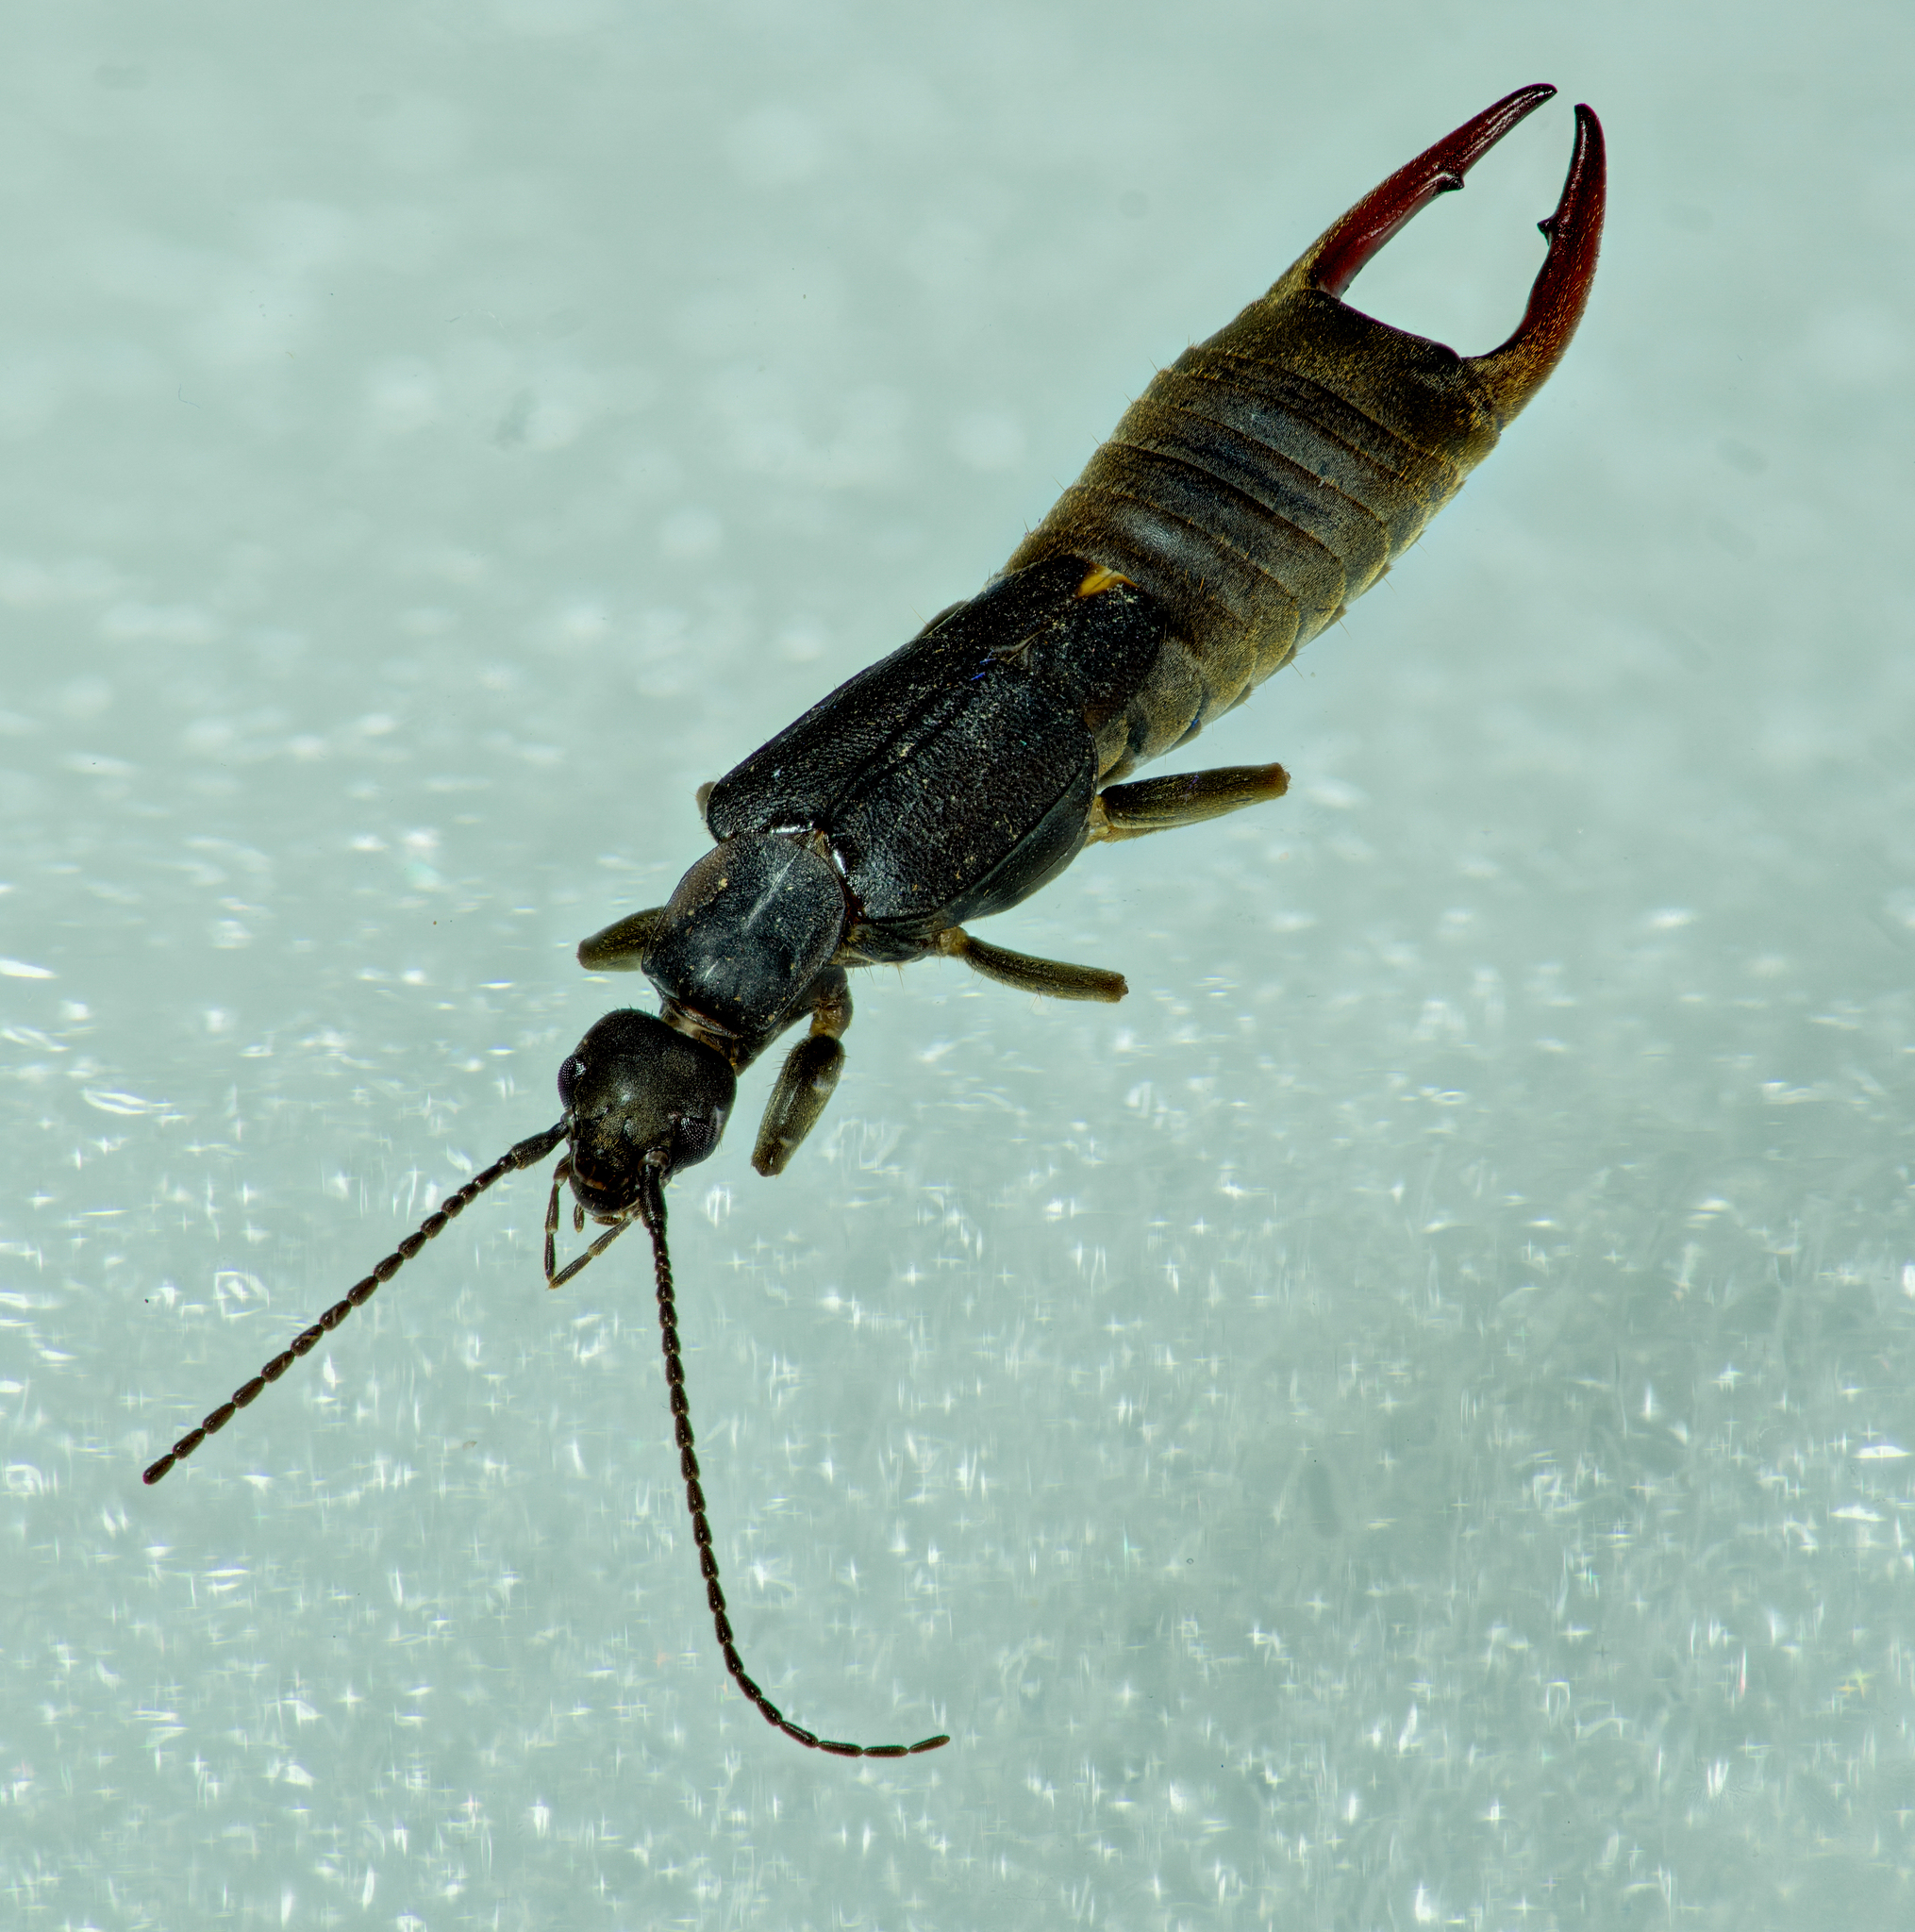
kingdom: Animalia
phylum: Arthropoda
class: Insecta
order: Dermaptera
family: Labiduridae
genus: Nala
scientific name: Nala lividipes
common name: Earwig
